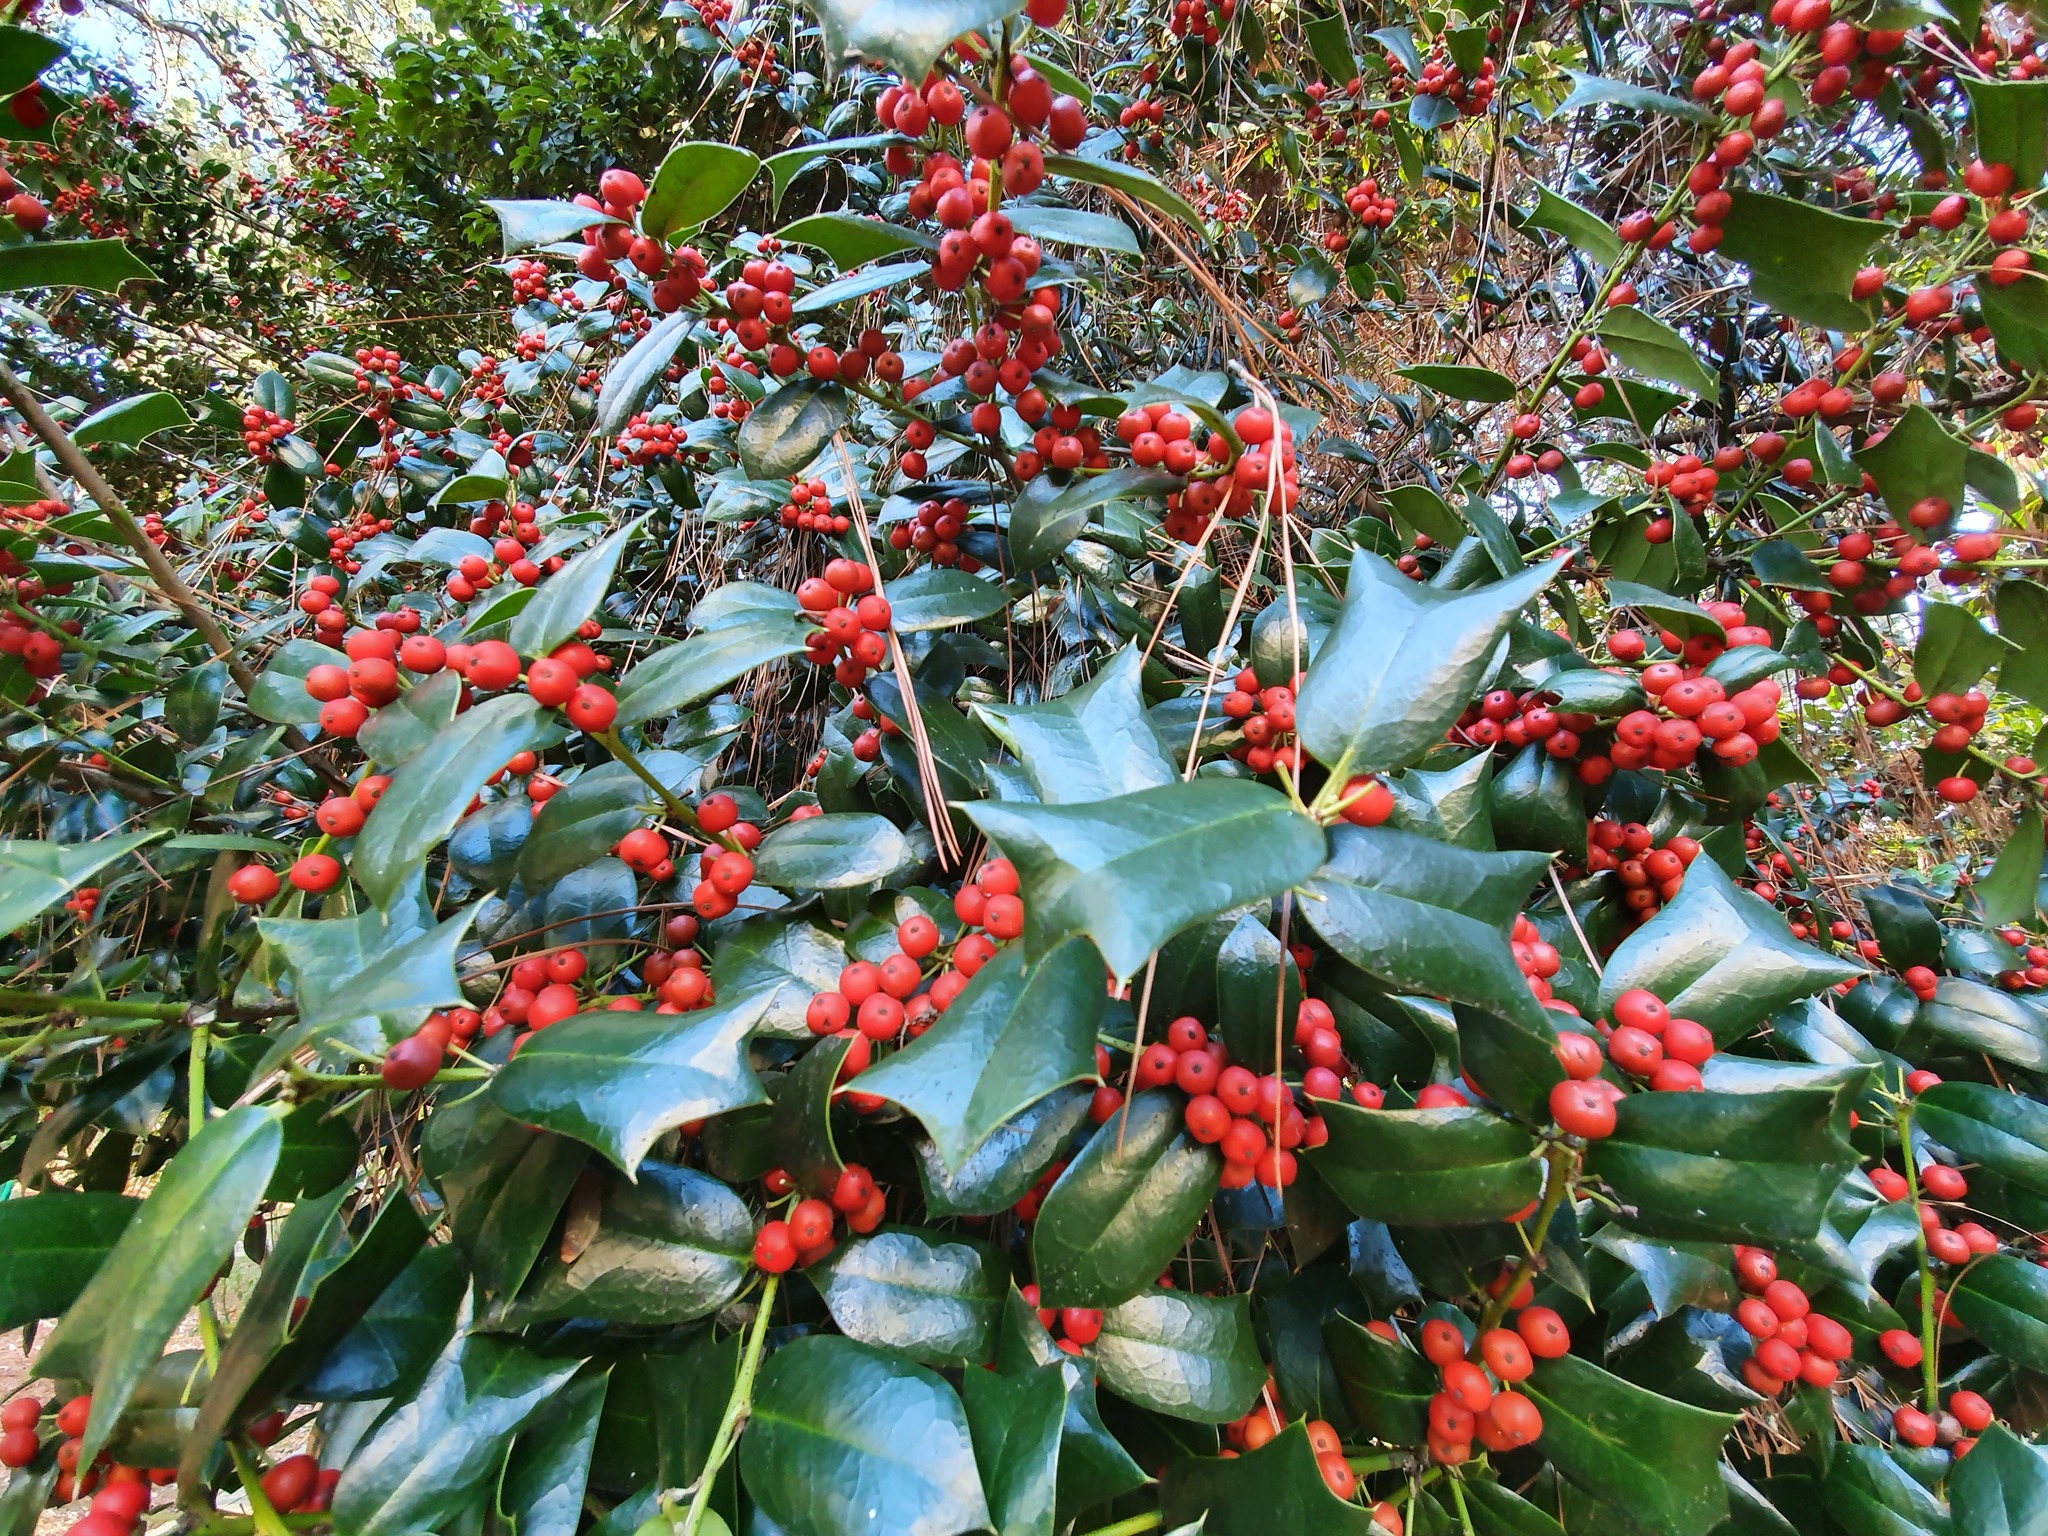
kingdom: Plantae
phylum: Tracheophyta
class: Magnoliopsida
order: Aquifoliales
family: Aquifoliaceae
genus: Ilex
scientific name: Ilex colchica
